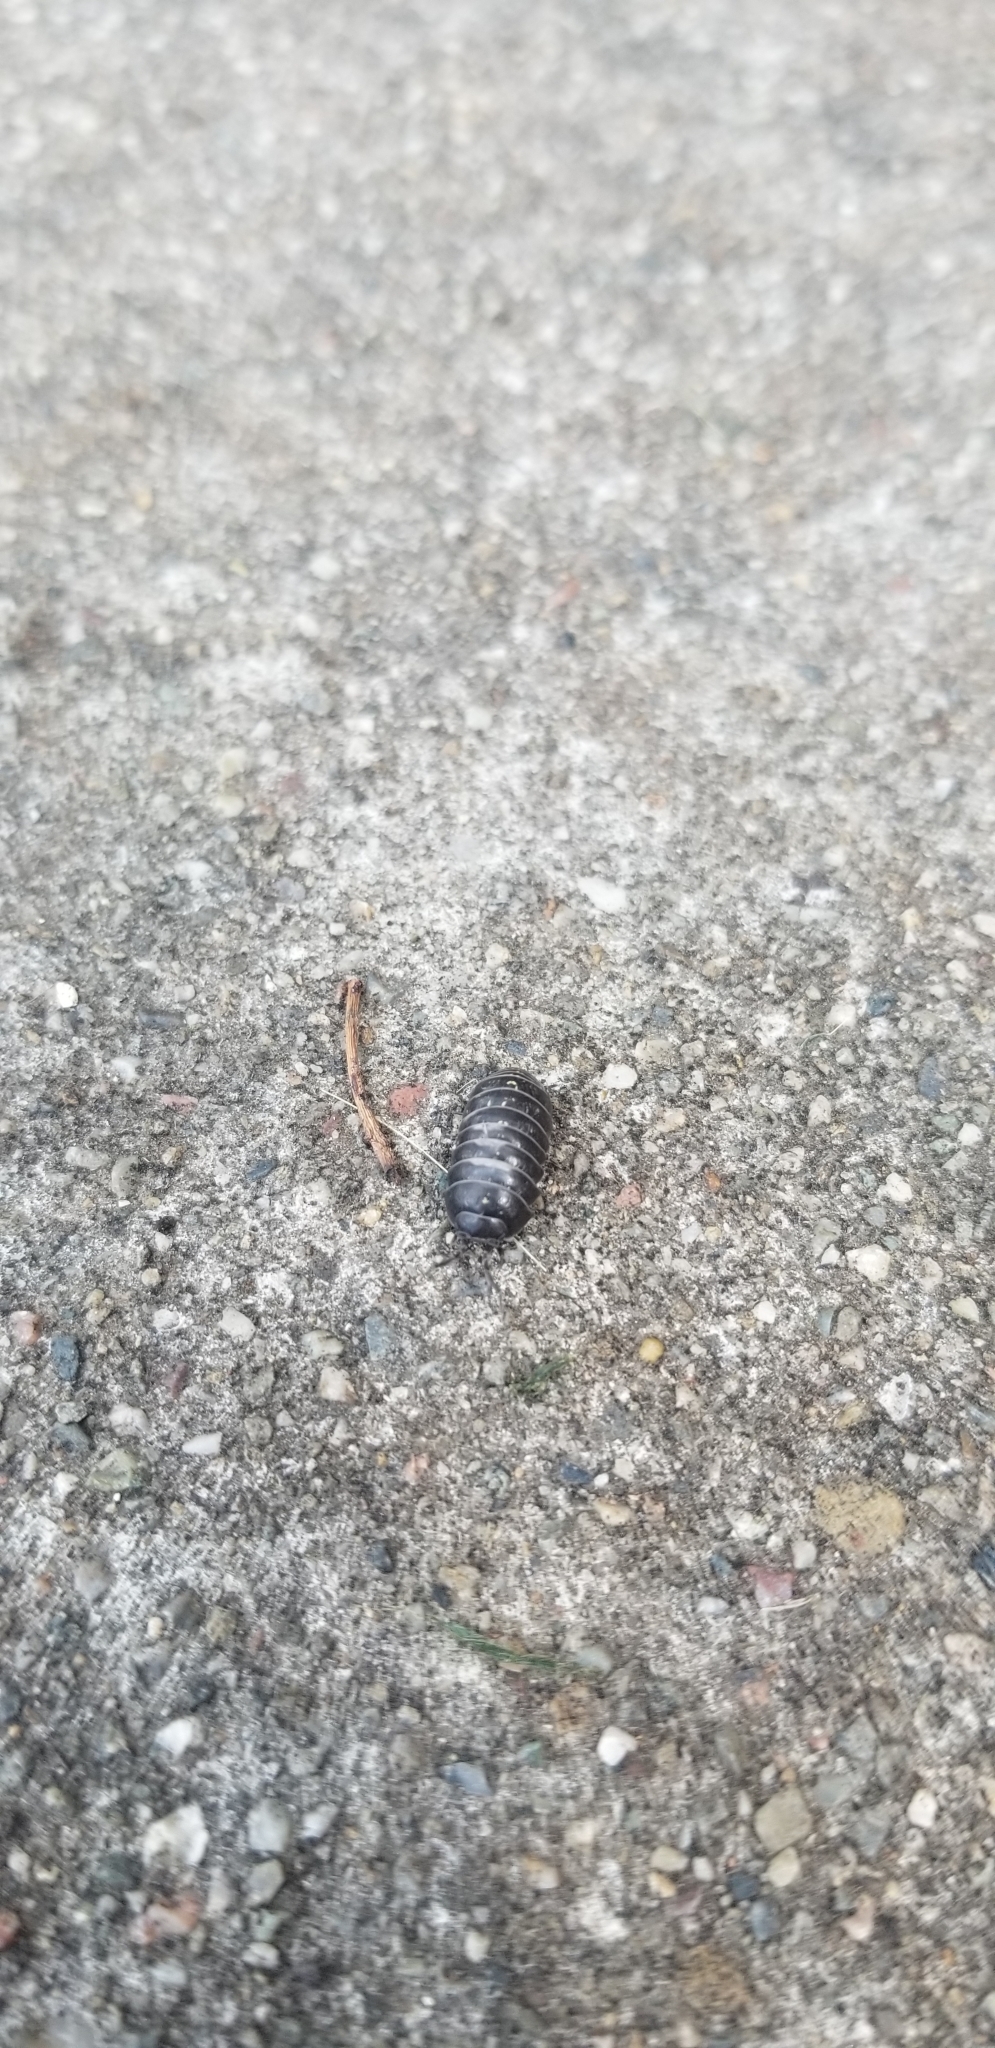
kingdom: Animalia
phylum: Arthropoda
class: Malacostraca
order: Isopoda
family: Armadillidiidae
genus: Armadillidium
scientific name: Armadillidium vulgare
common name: Common pill woodlouse
